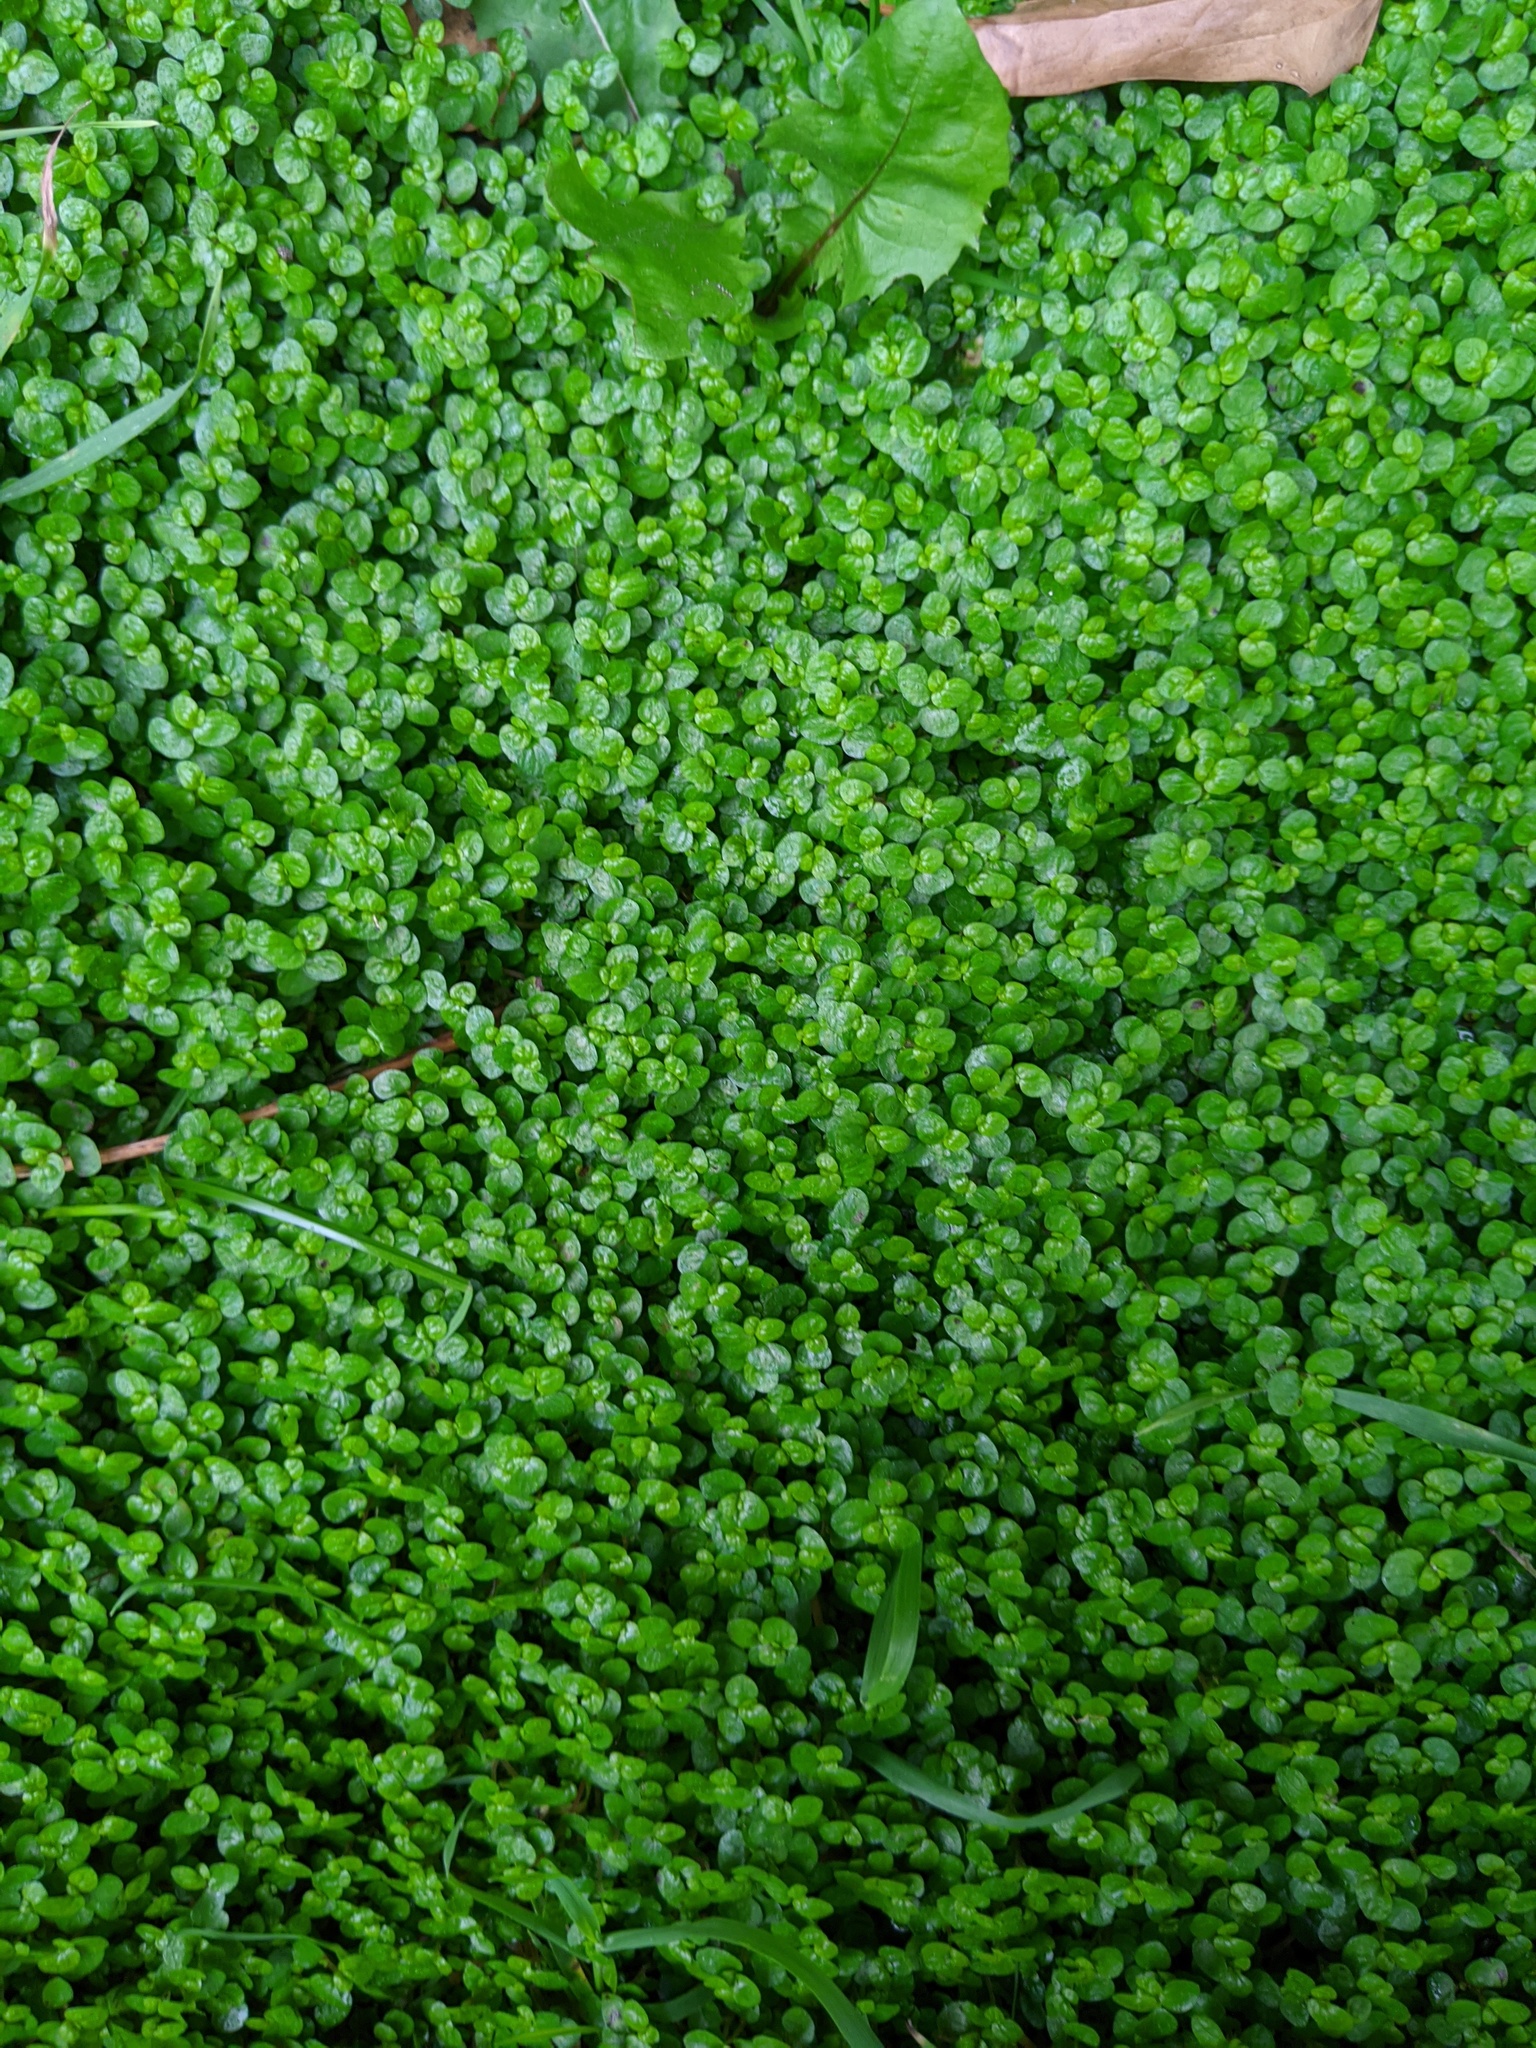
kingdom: Plantae
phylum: Tracheophyta
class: Magnoliopsida
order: Rosales
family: Urticaceae
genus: Soleirolia
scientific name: Soleirolia soleirolii
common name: Mind-your-own-business
